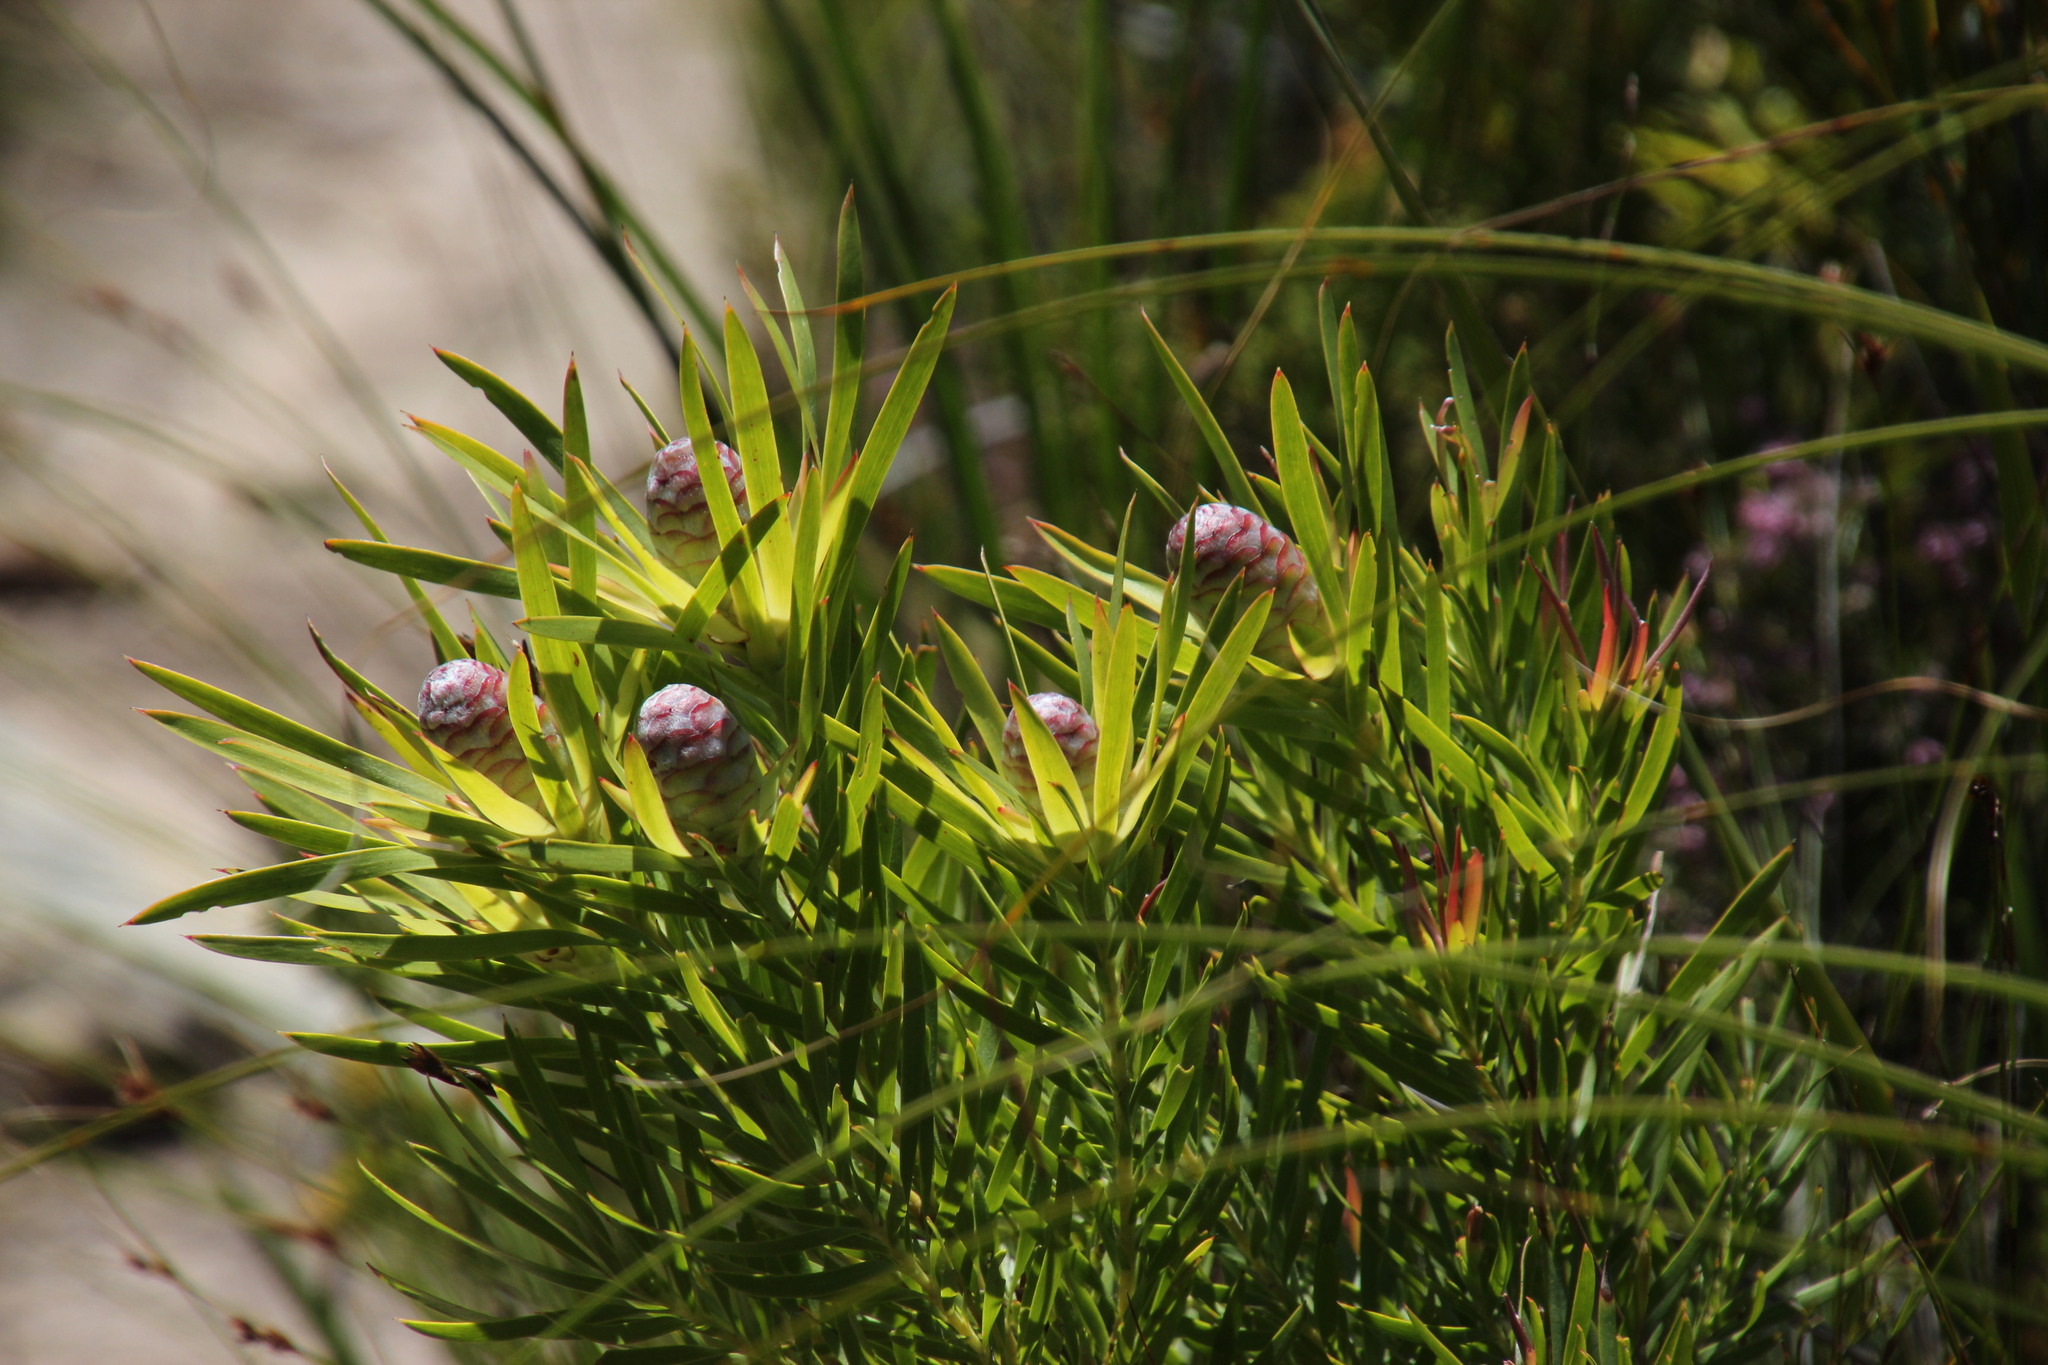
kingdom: Plantae
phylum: Tracheophyta
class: Magnoliopsida
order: Proteales
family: Proteaceae
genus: Leucadendron
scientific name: Leucadendron xanthoconus
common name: Sickle-leaf conebush
